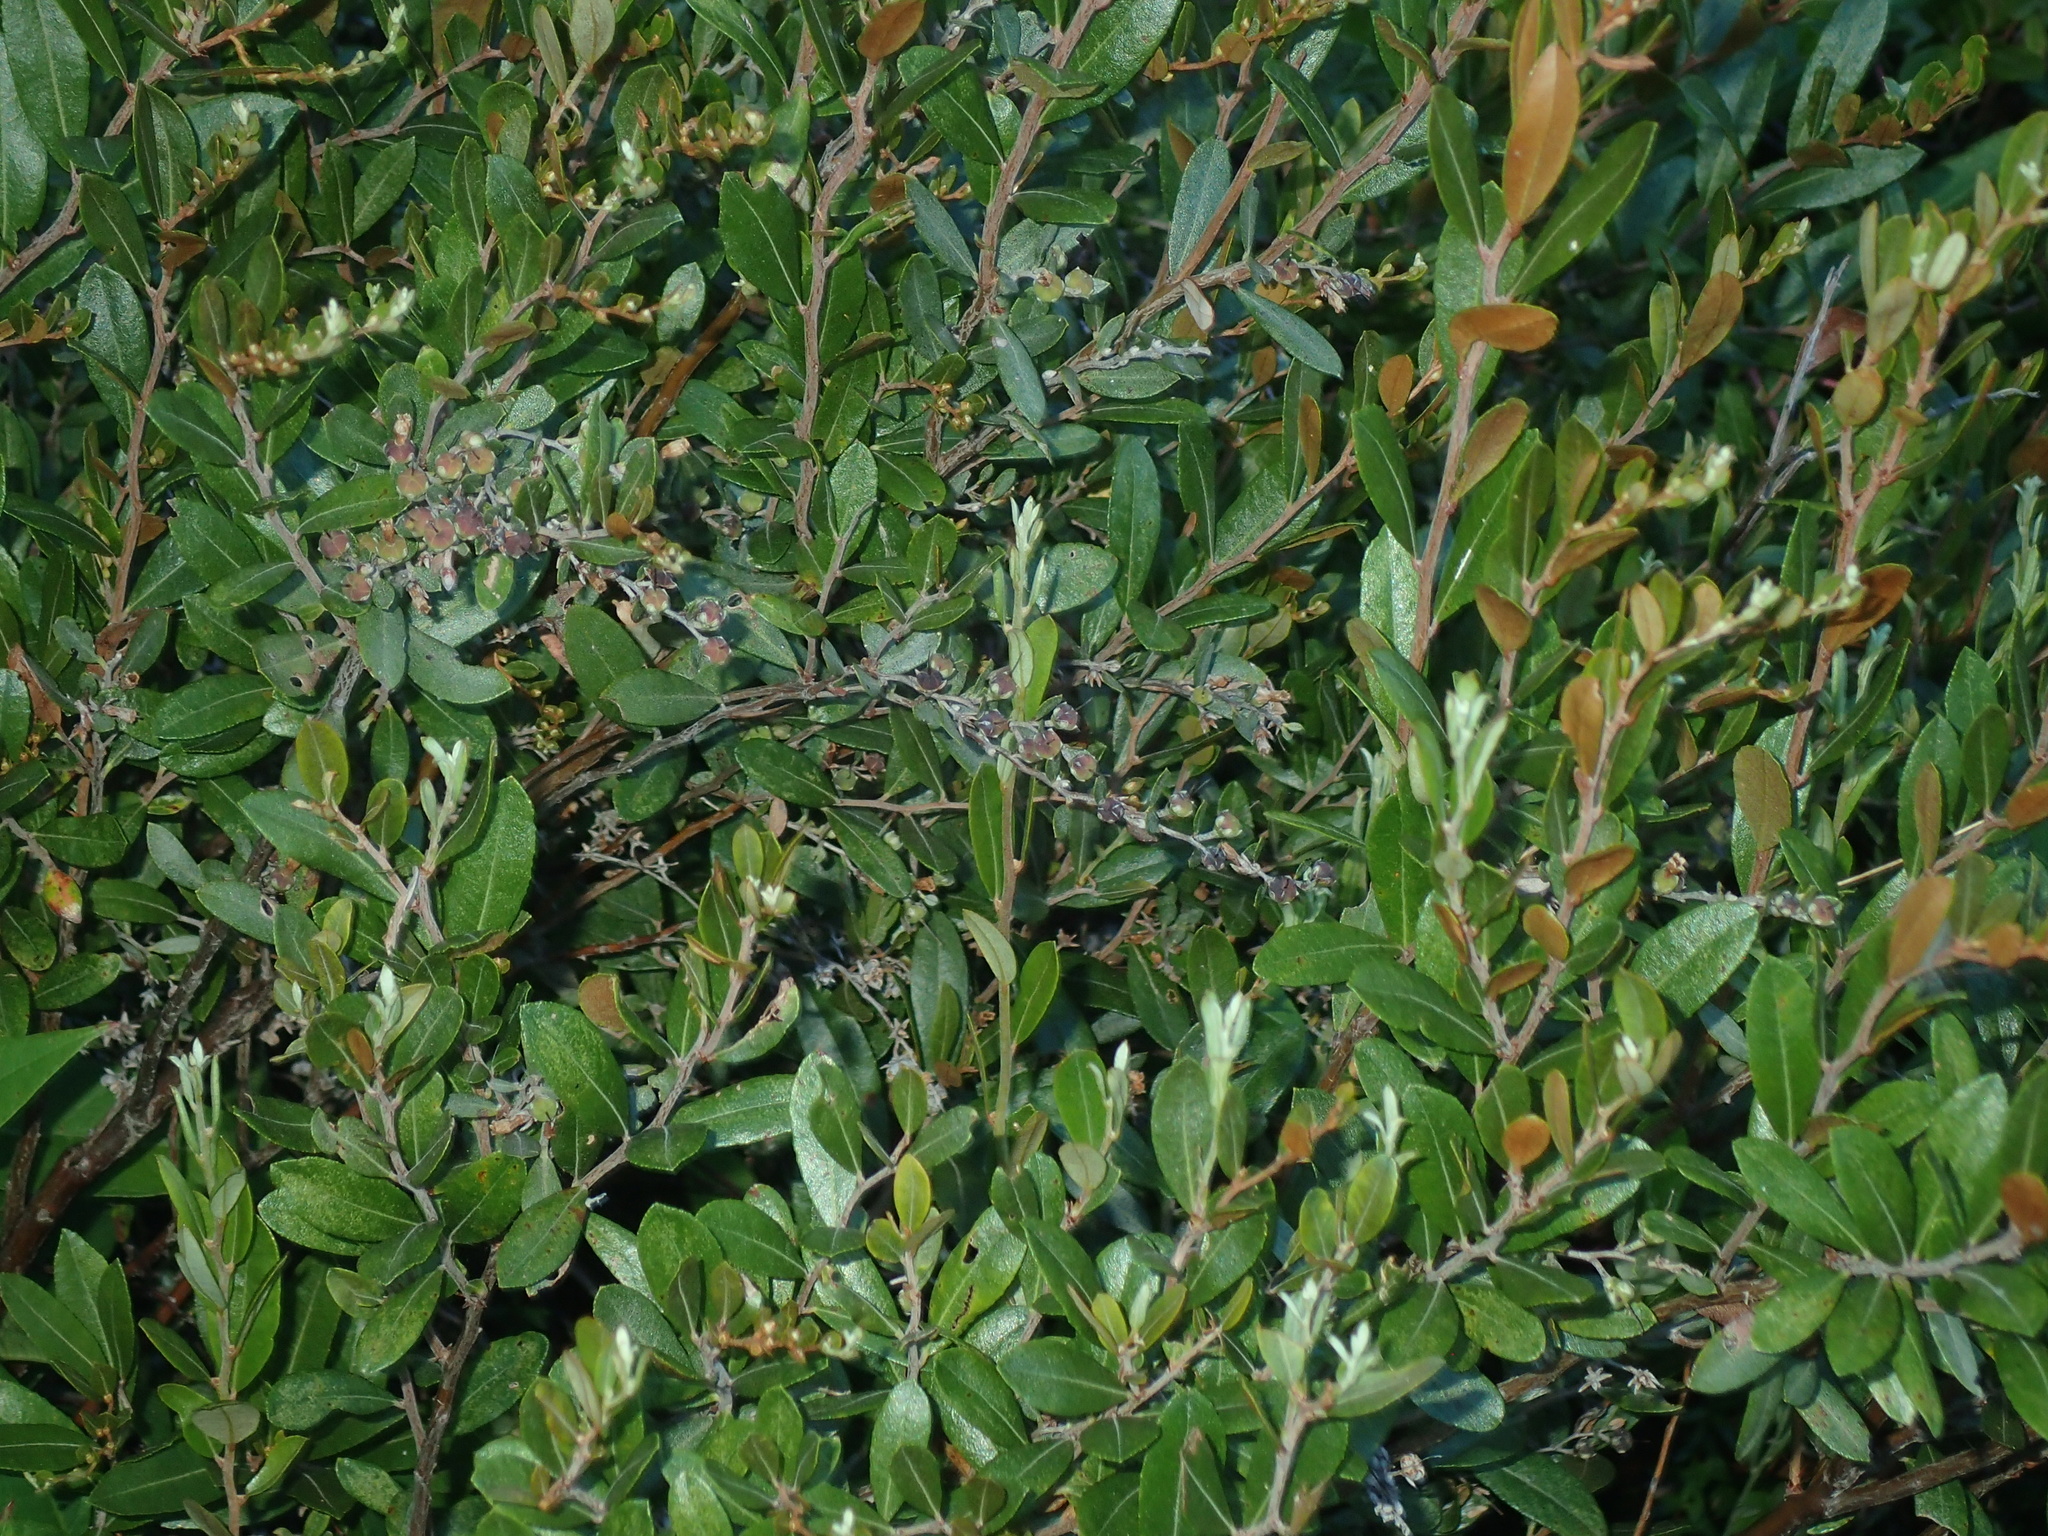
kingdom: Plantae
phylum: Tracheophyta
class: Magnoliopsida
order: Ericales
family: Ericaceae
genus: Chamaedaphne
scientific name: Chamaedaphne calyculata
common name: Leatherleaf
